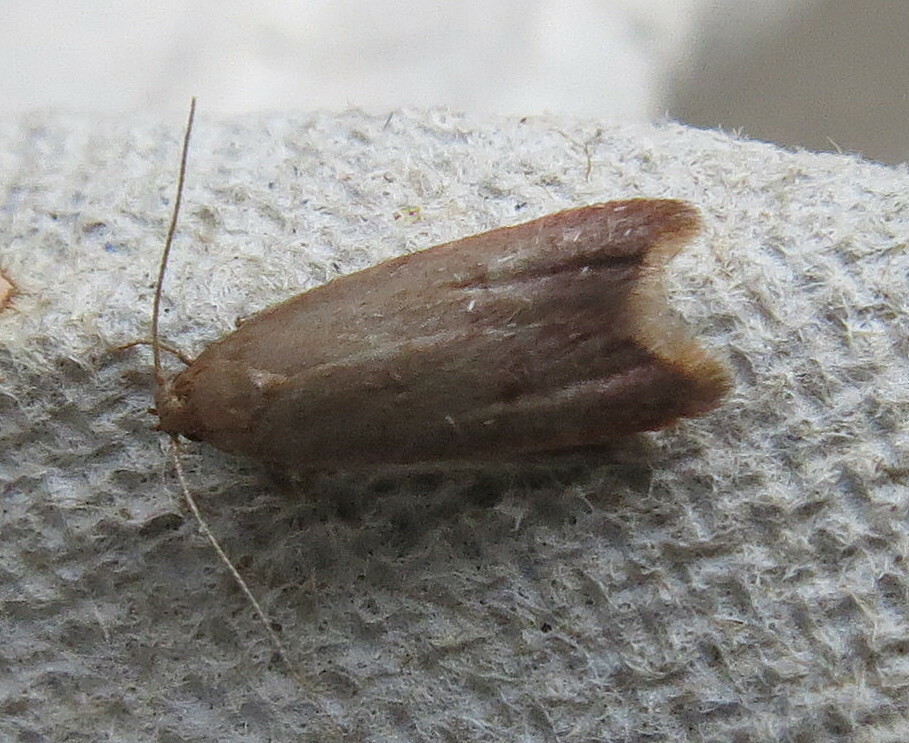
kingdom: Animalia
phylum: Arthropoda
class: Insecta
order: Lepidoptera
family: Oecophoridae
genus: Tachystola
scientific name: Tachystola acroxantha
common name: Ruddy streak
